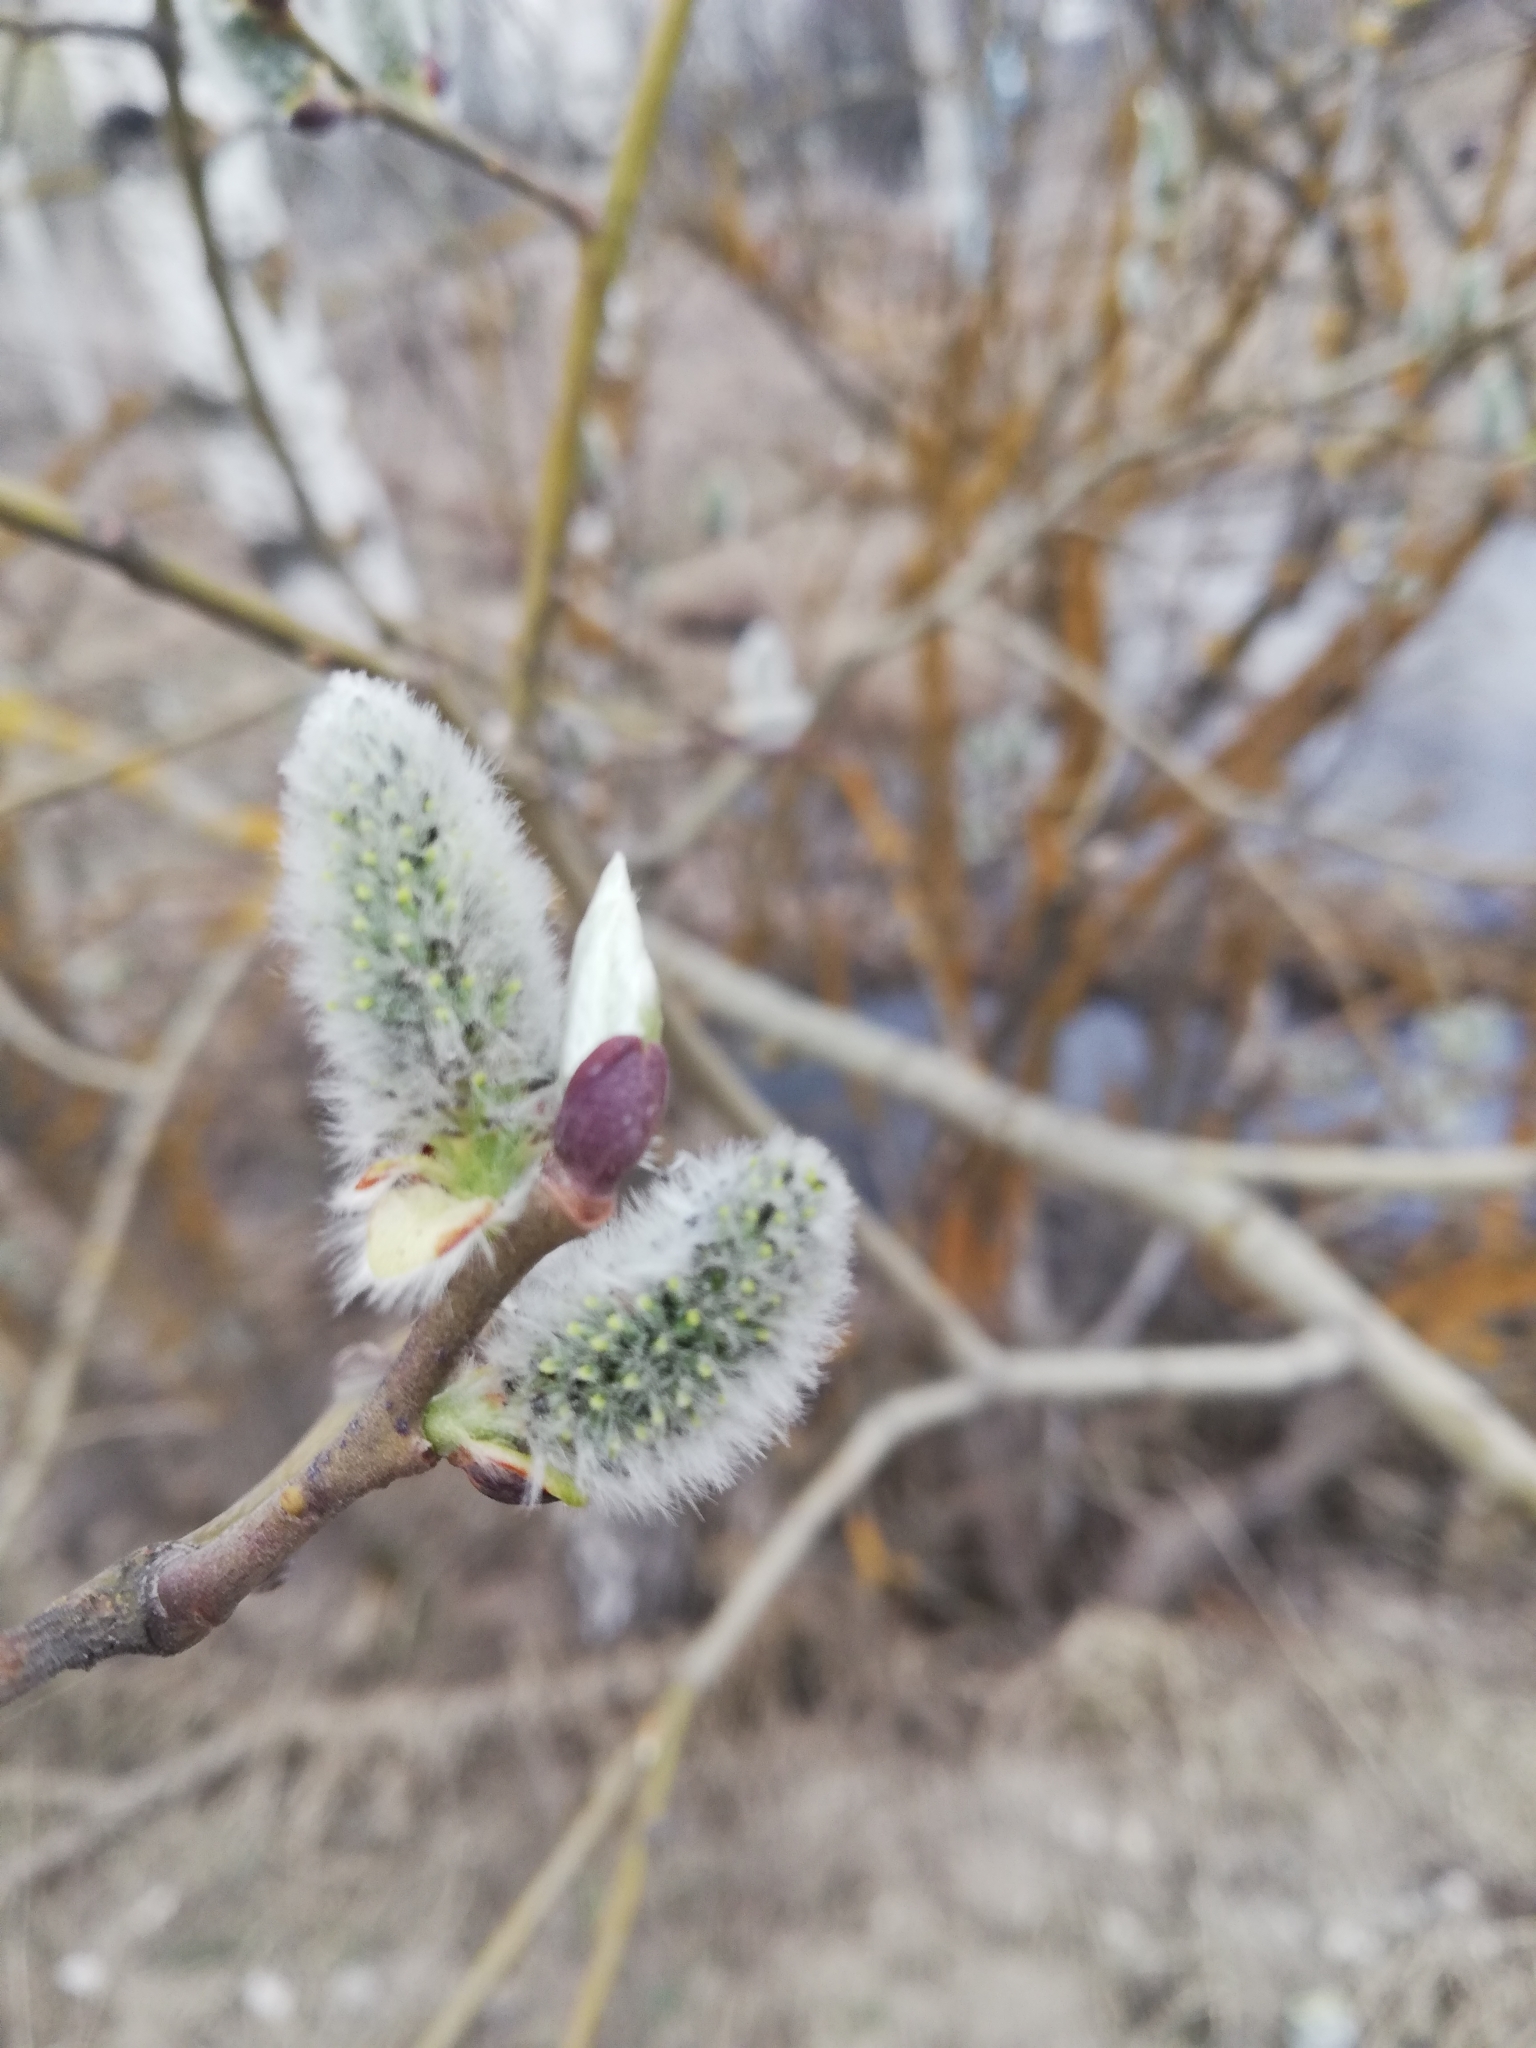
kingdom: Plantae
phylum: Tracheophyta
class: Magnoliopsida
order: Malpighiales
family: Salicaceae
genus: Salix
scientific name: Salix caprea
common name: Goat willow
